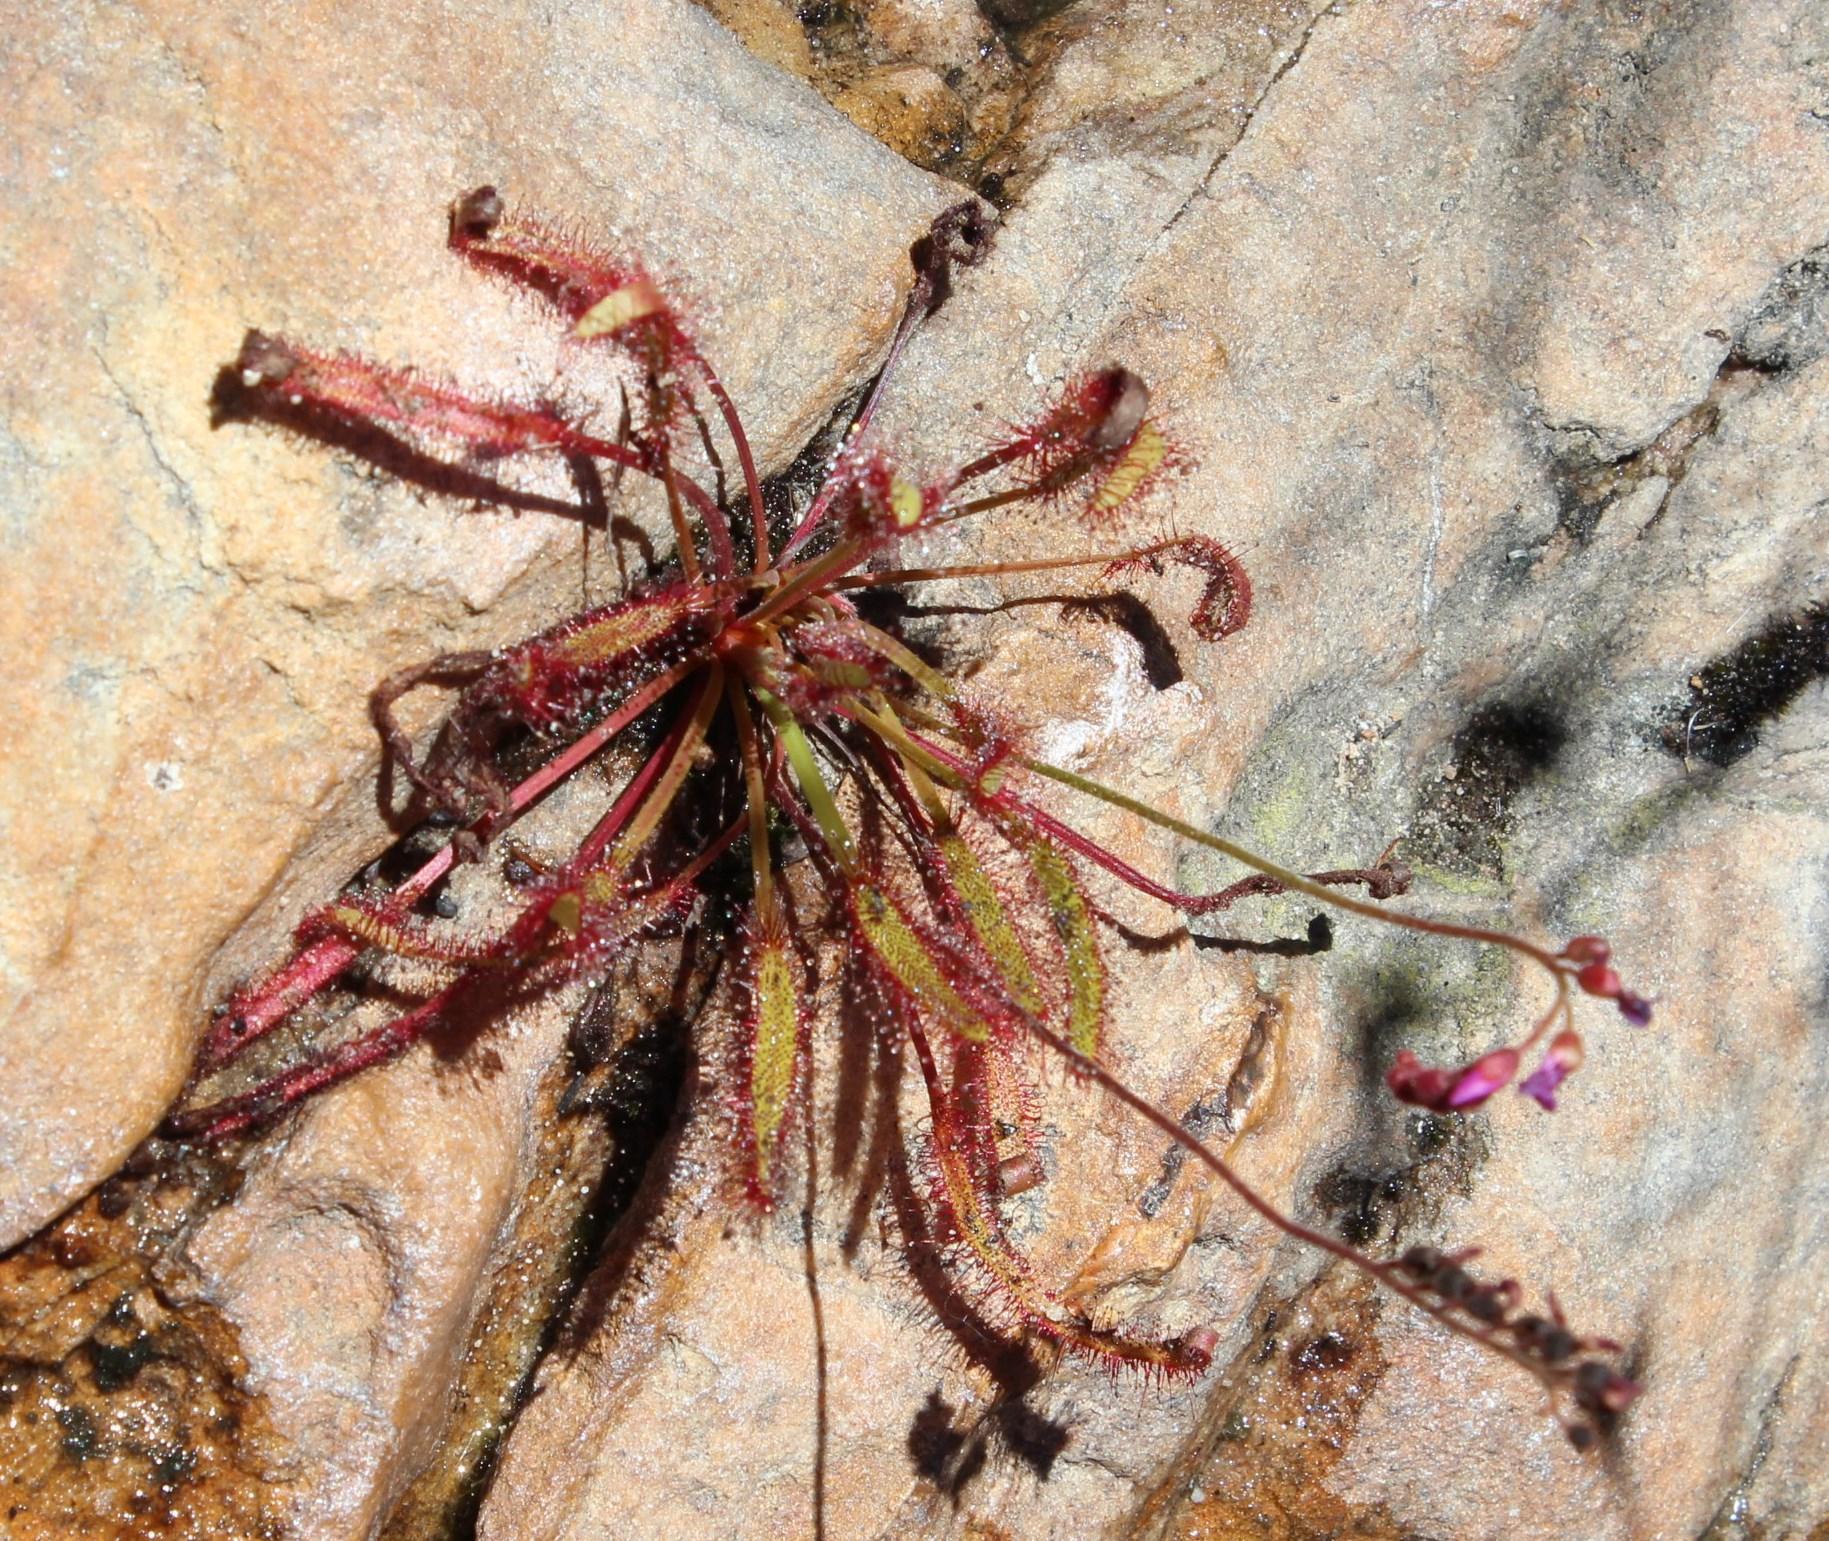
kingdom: Plantae
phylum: Tracheophyta
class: Magnoliopsida
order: Caryophyllales
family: Droseraceae
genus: Drosera
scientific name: Drosera capensis
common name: Cape sundew
